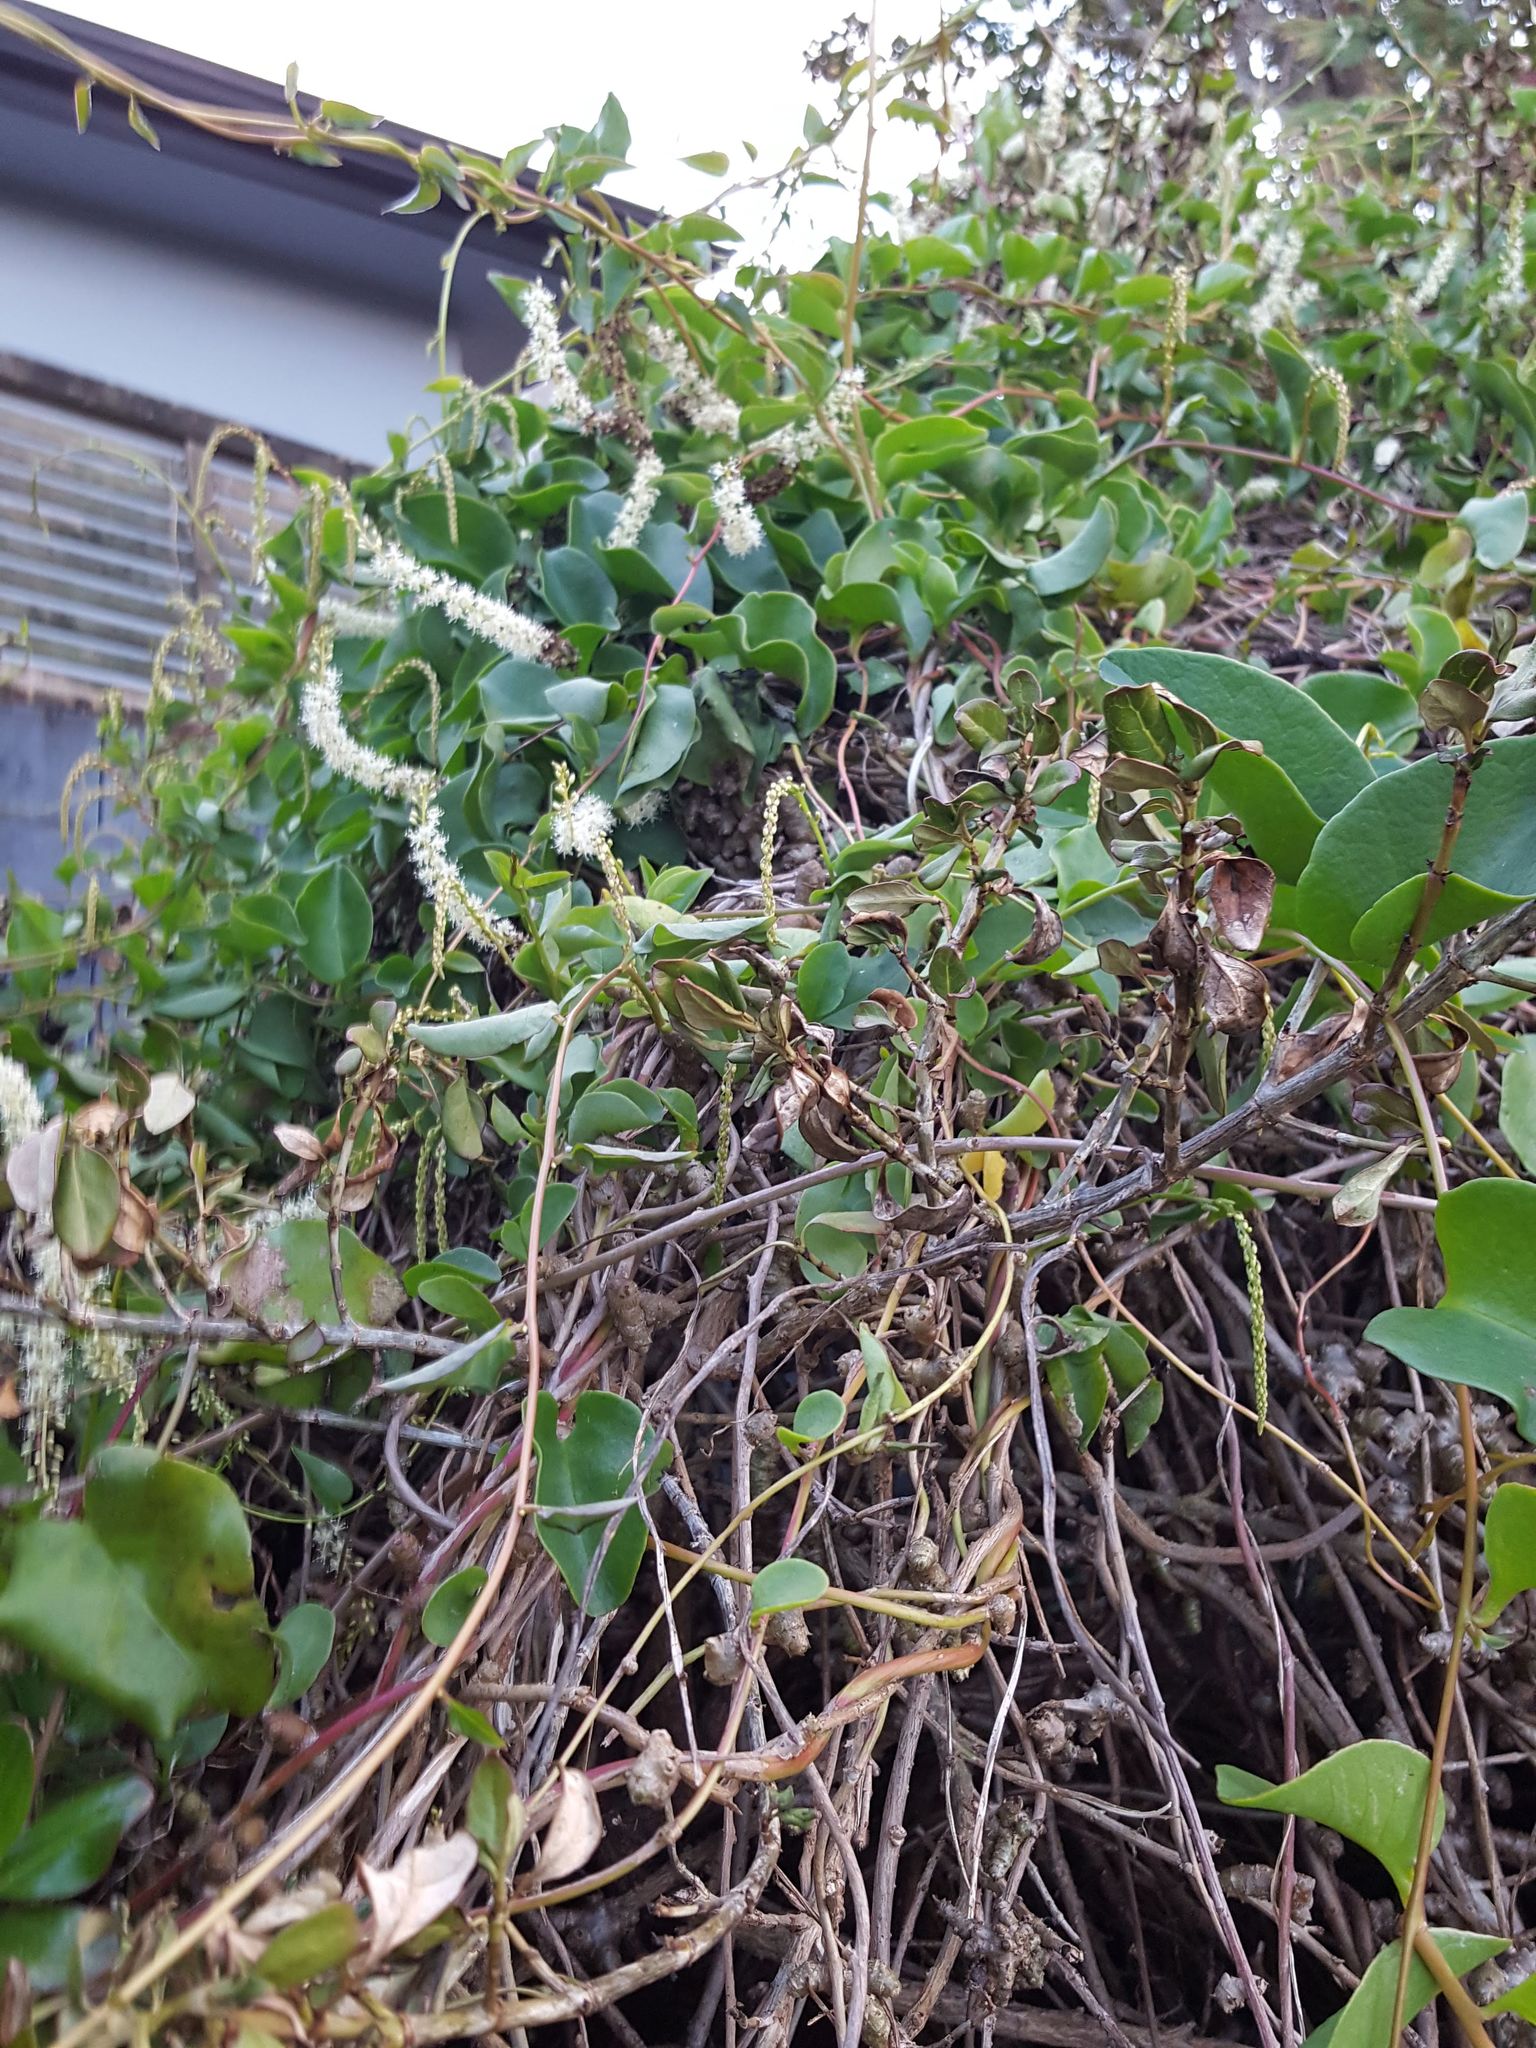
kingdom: Plantae
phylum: Tracheophyta
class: Magnoliopsida
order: Caryophyllales
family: Basellaceae
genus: Anredera
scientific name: Anredera cordifolia
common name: Heartleaf madeiravine
